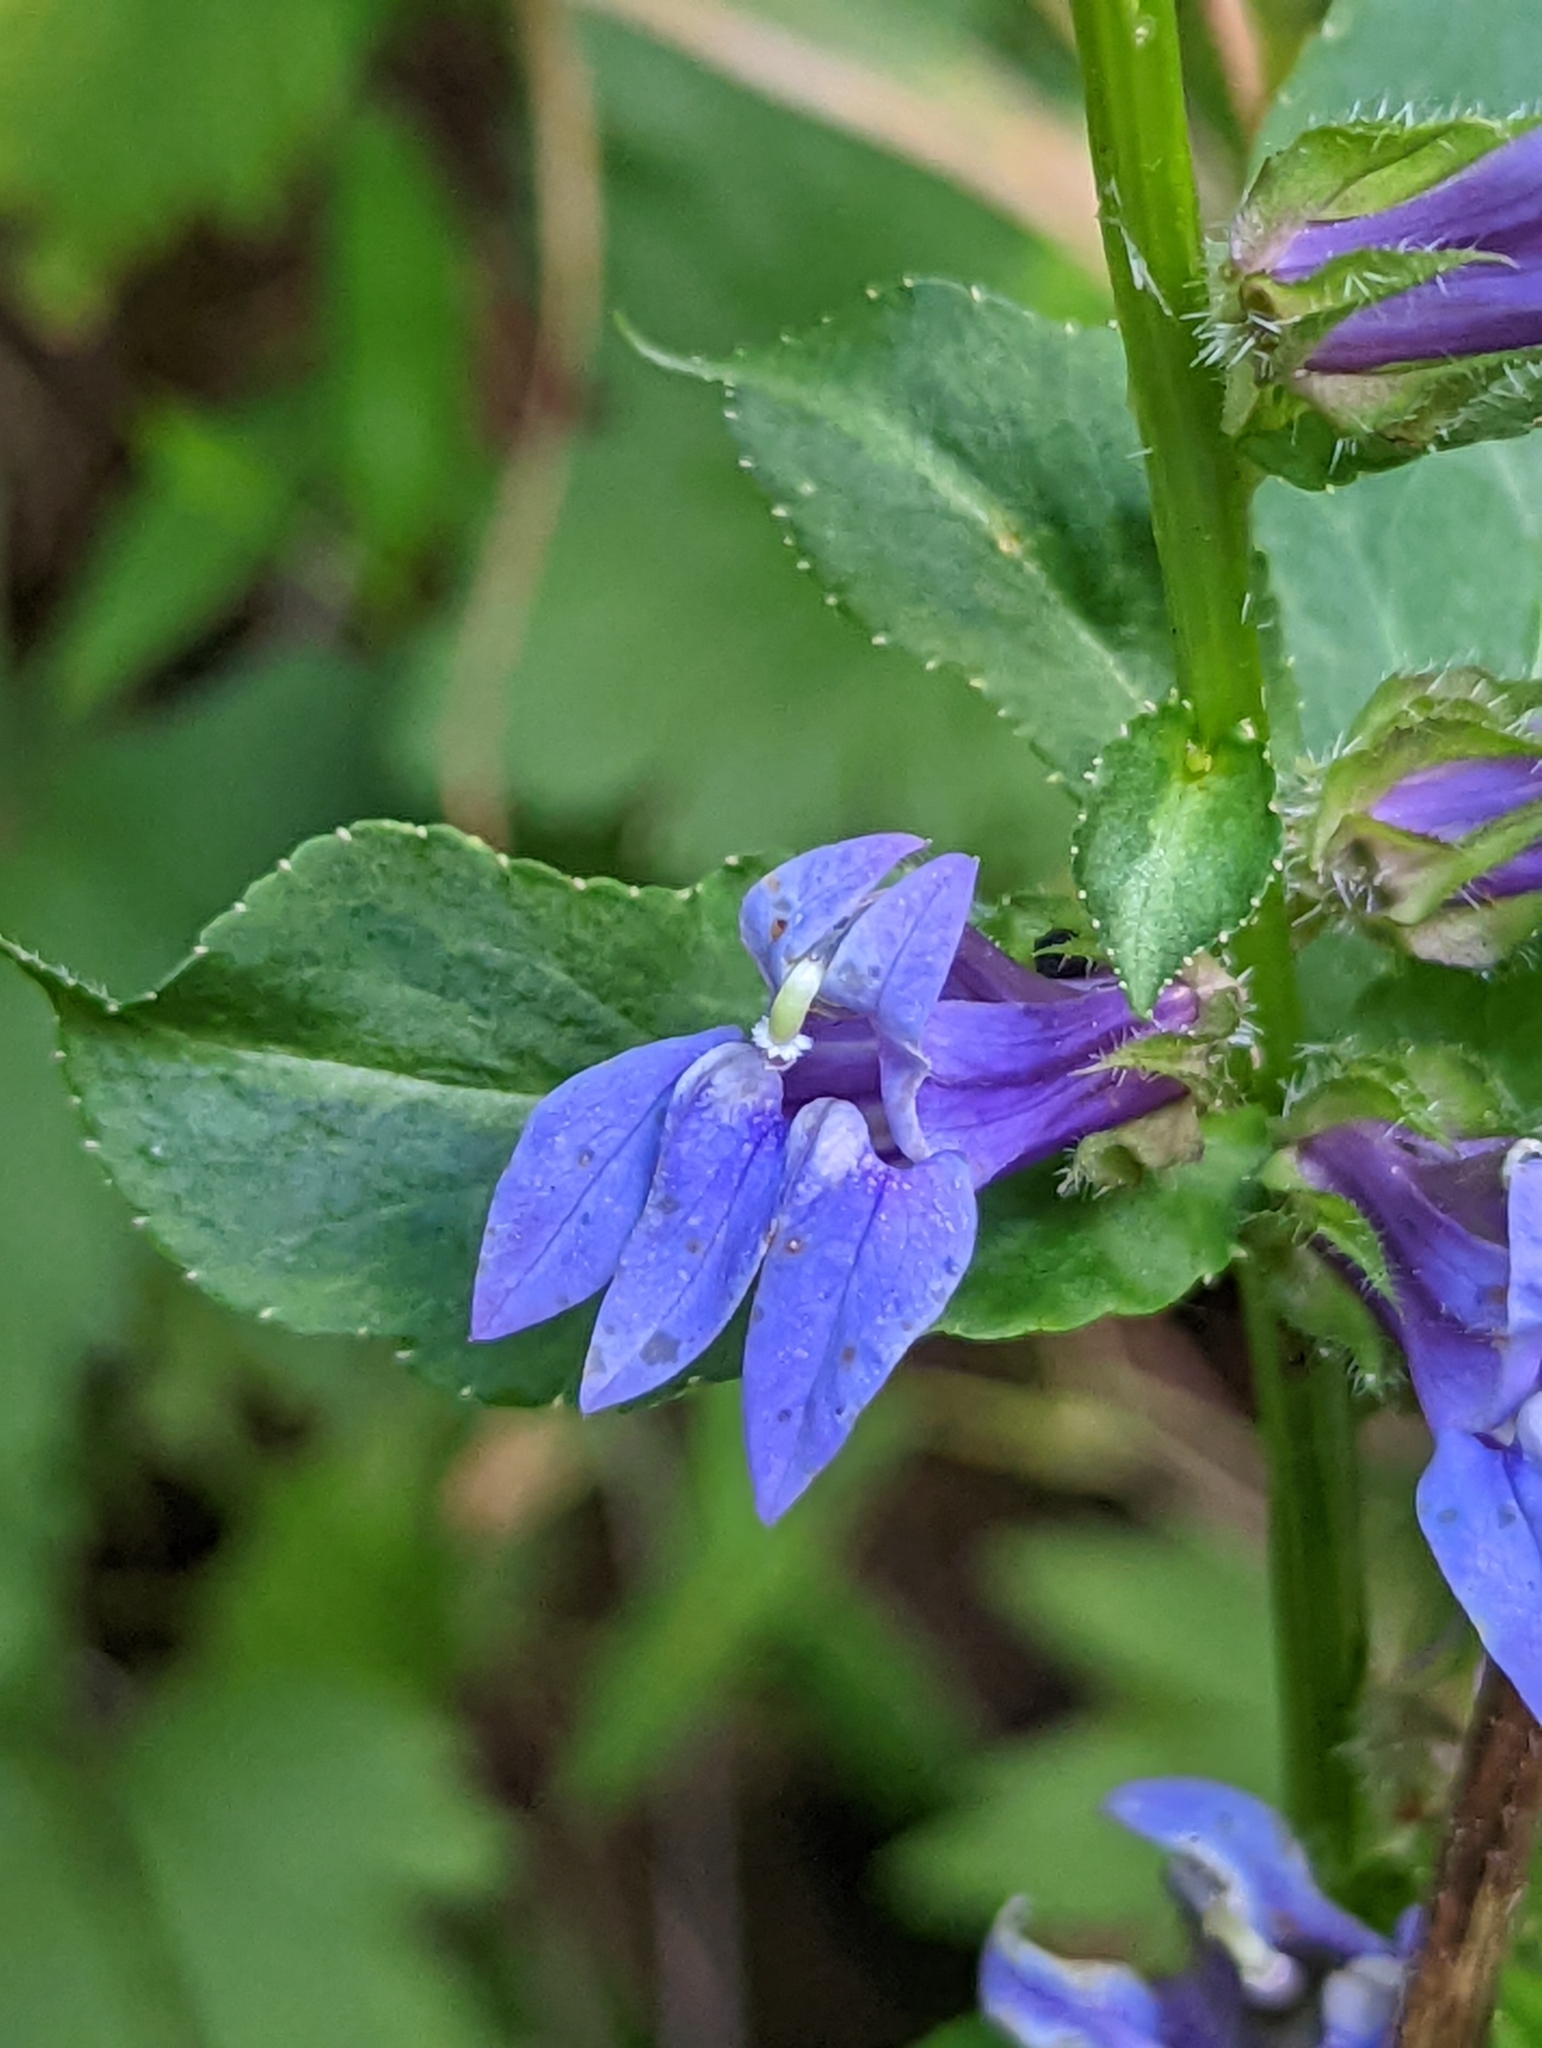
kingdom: Plantae
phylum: Tracheophyta
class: Magnoliopsida
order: Asterales
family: Campanulaceae
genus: Lobelia
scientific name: Lobelia siphilitica
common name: Great lobelia
